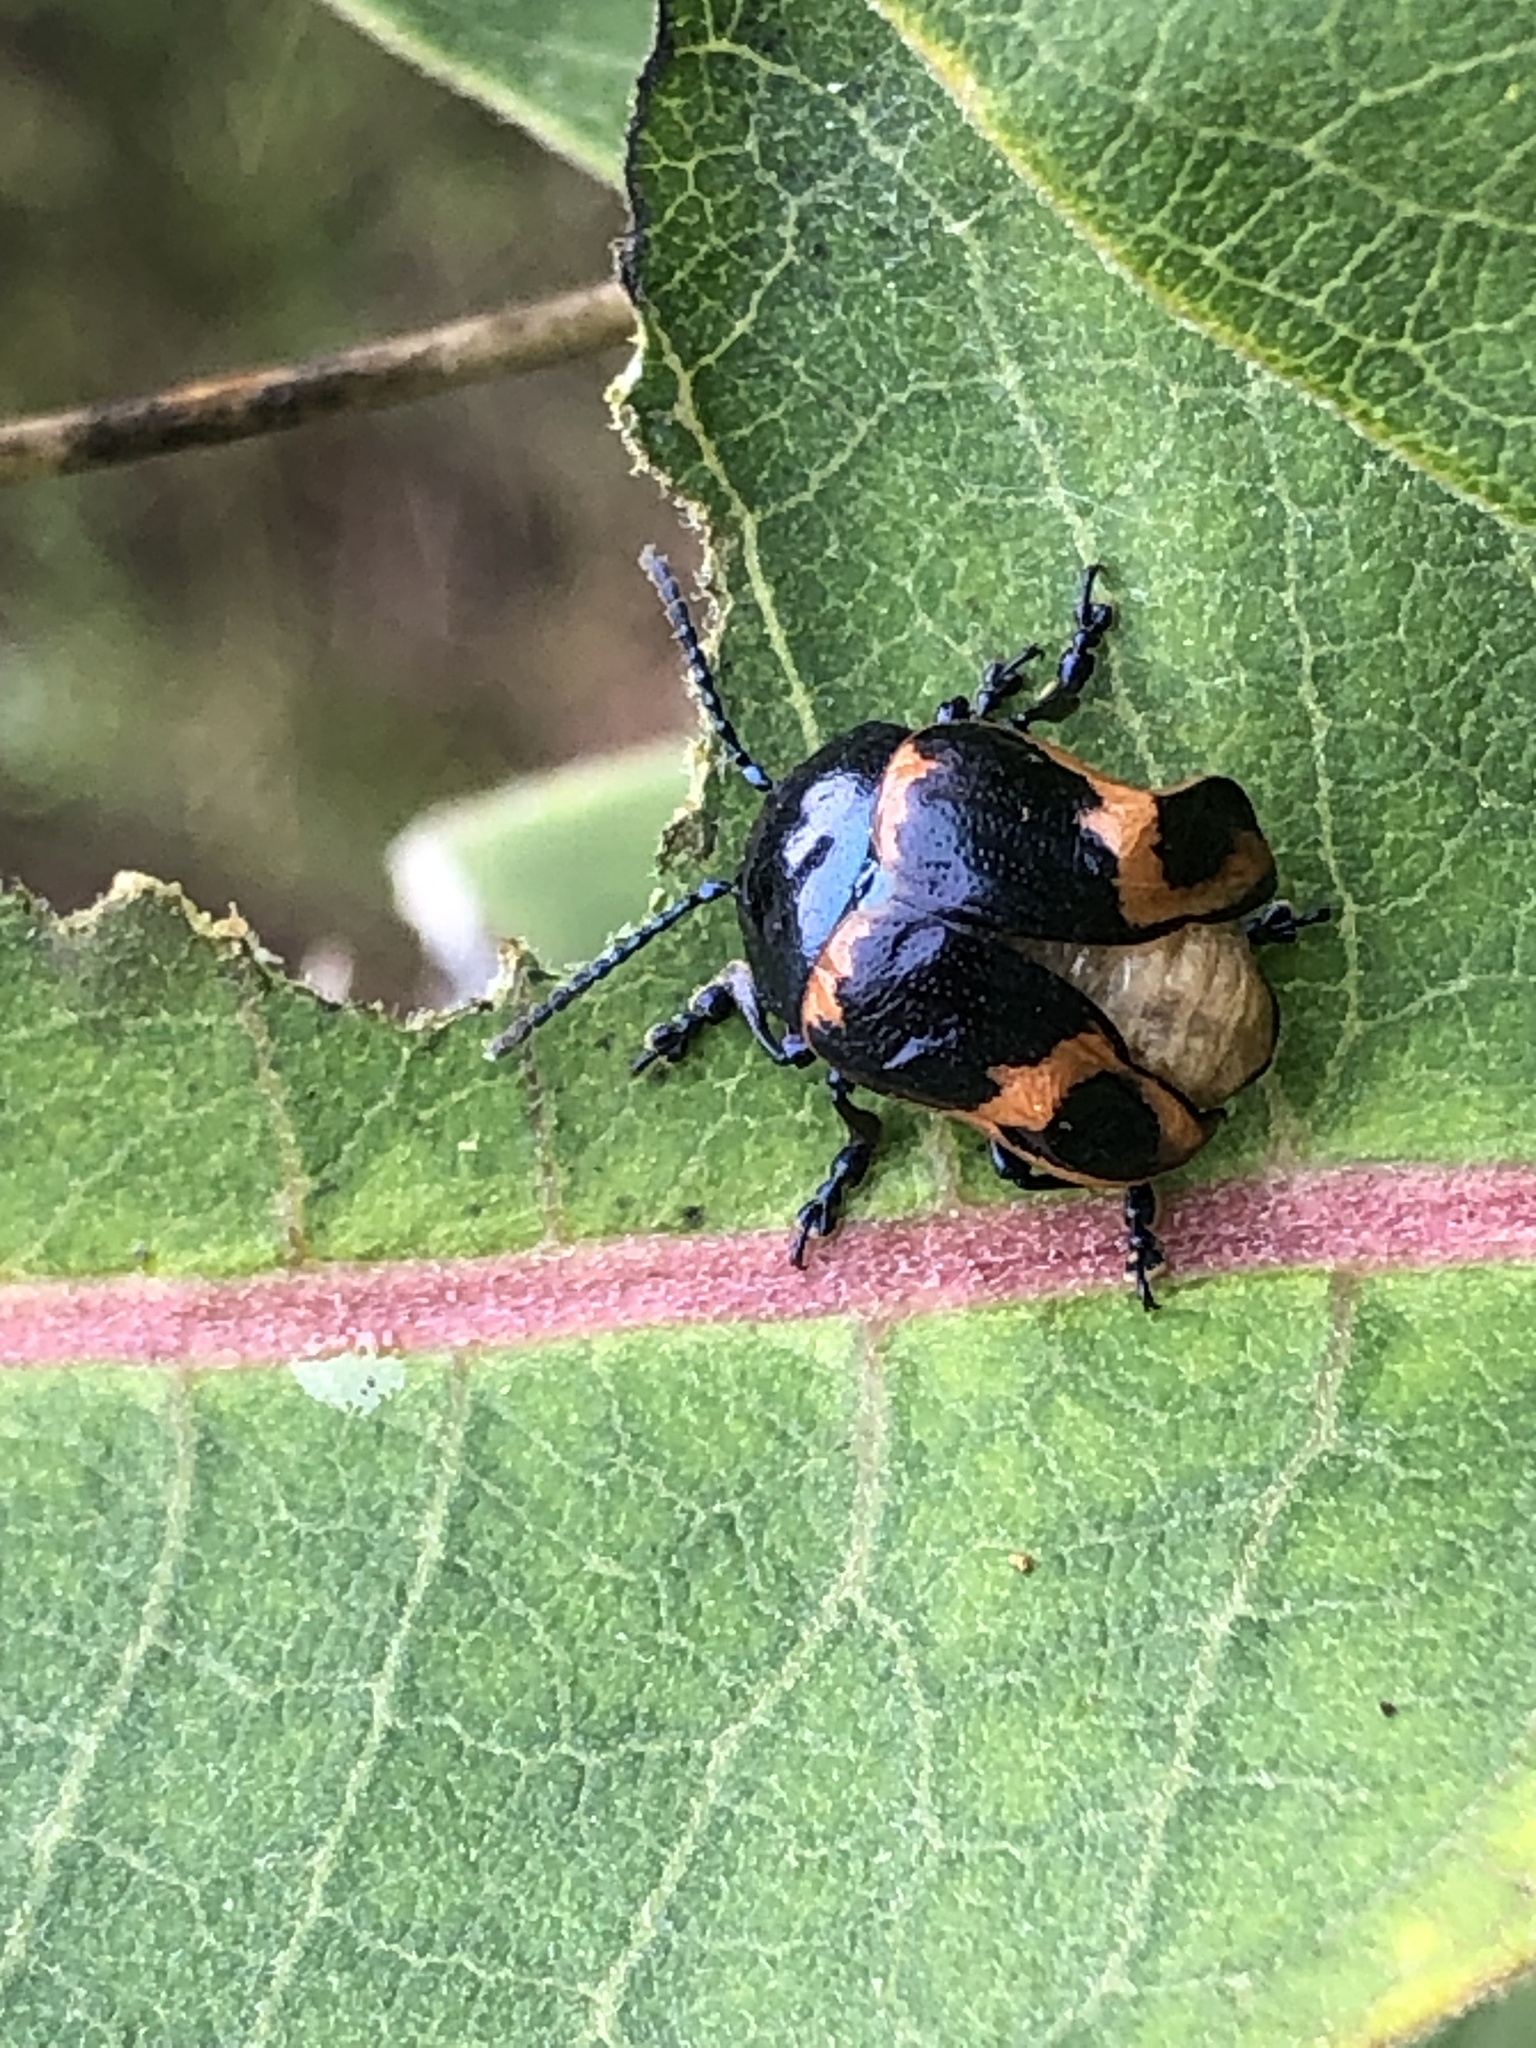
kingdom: Animalia
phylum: Arthropoda
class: Insecta
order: Coleoptera
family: Chrysomelidae
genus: Labidomera
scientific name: Labidomera clivicollis
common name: Swamp milkweed leaf beetle
